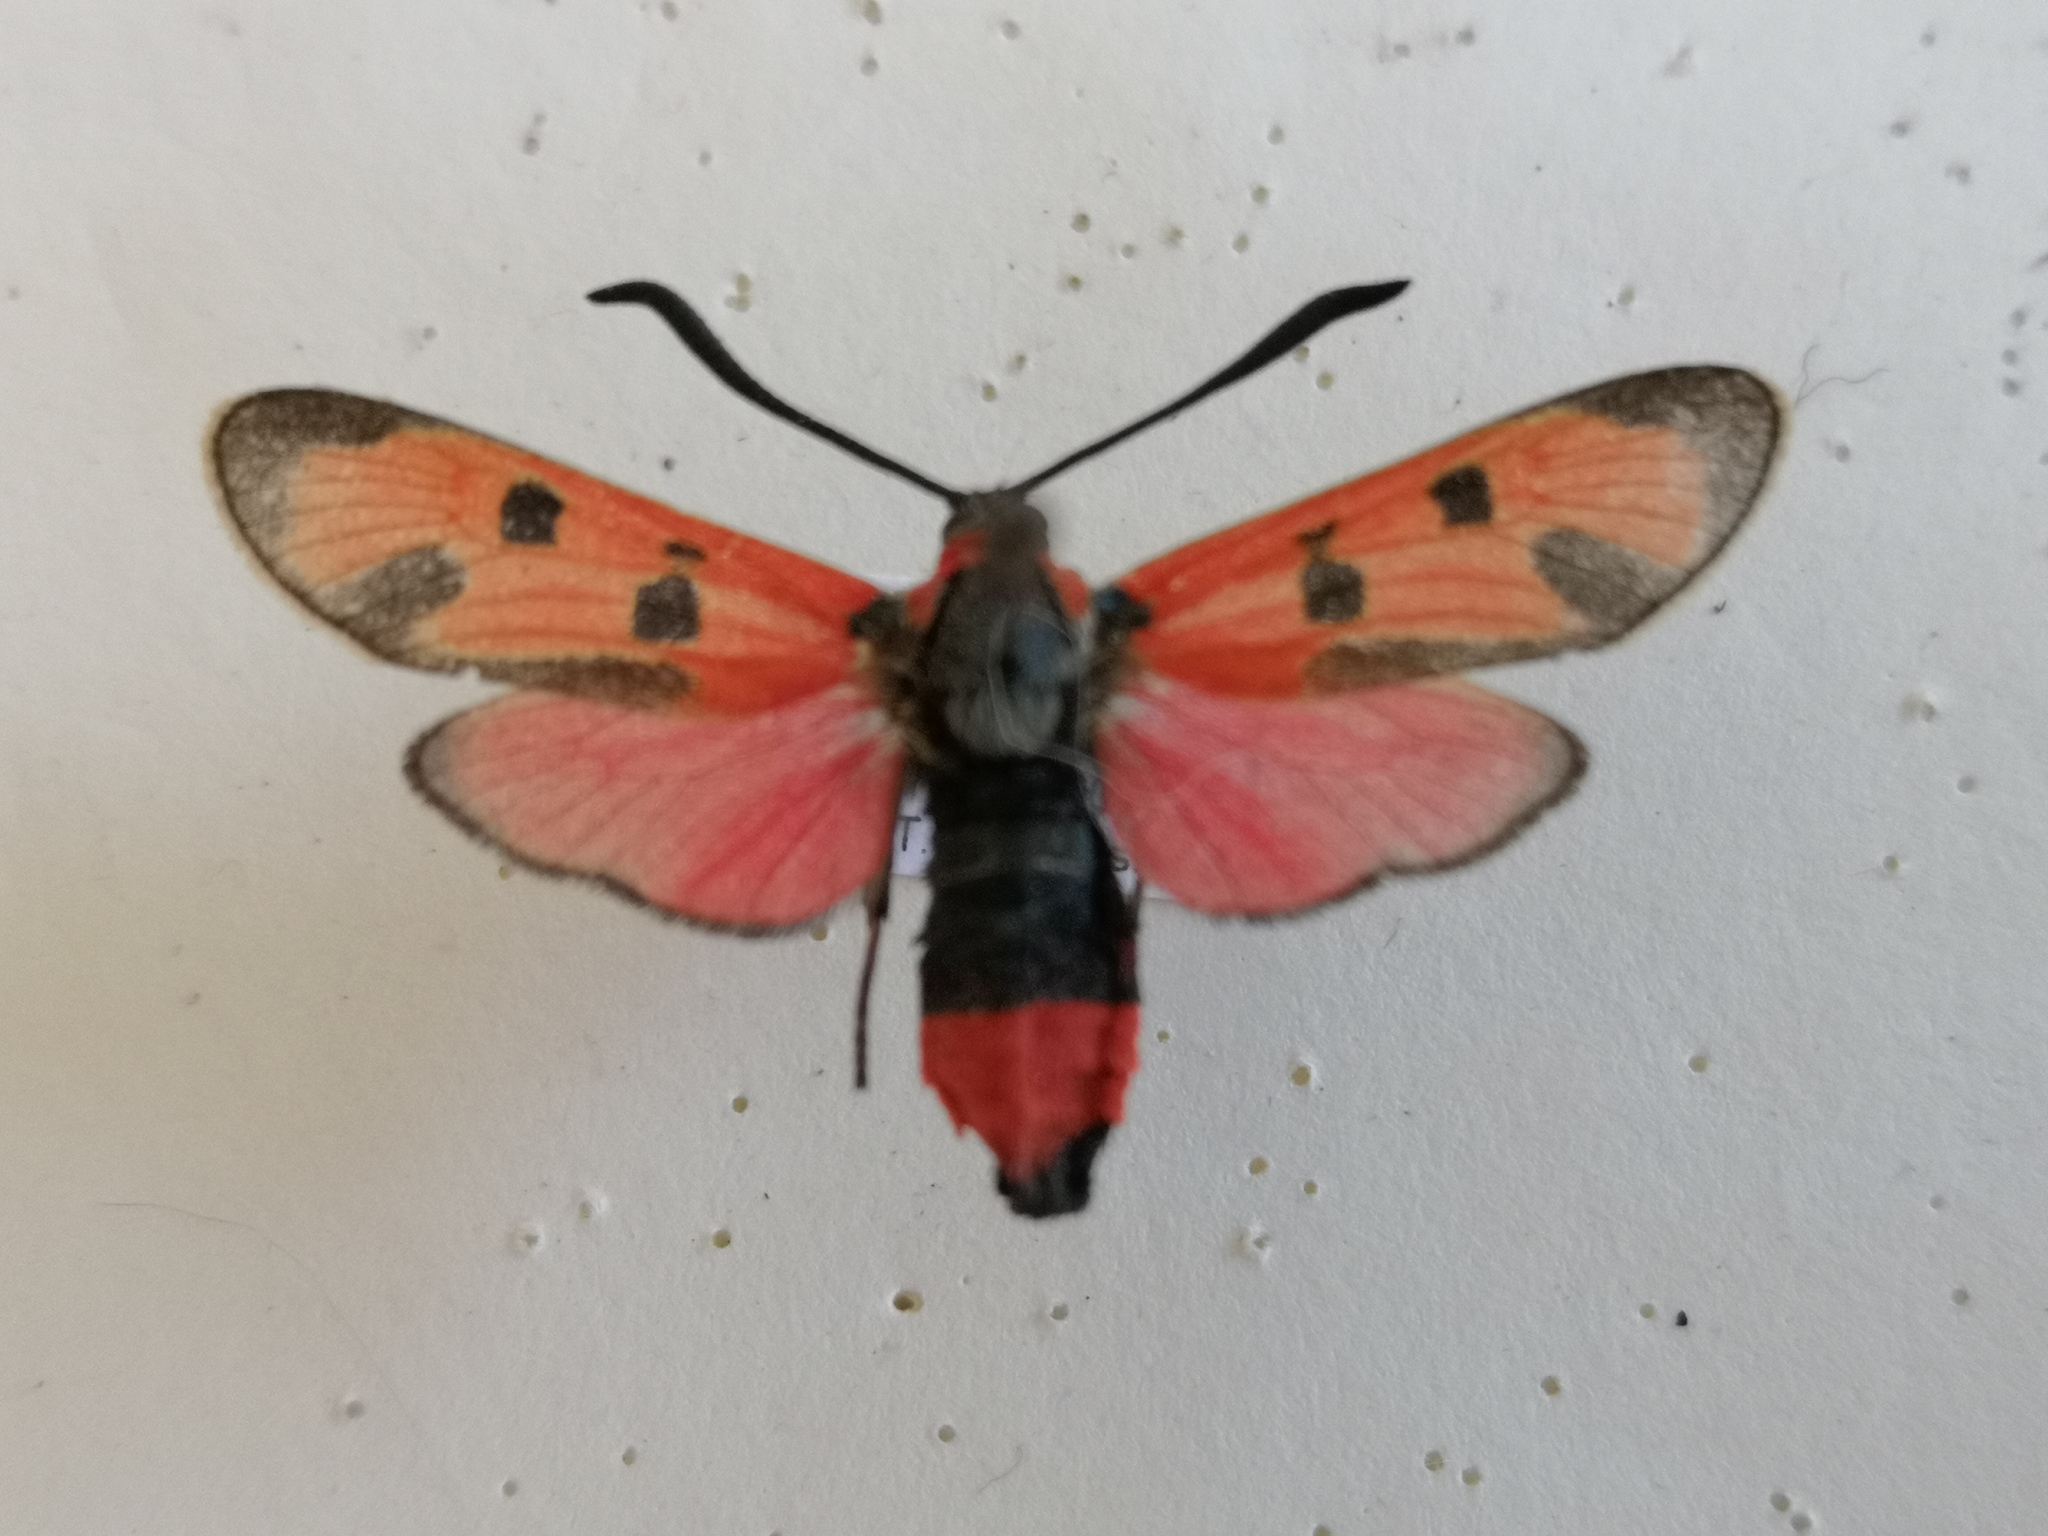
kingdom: Animalia
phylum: Arthropoda
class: Insecta
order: Lepidoptera
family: Zygaenidae
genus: Zygaena
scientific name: Zygaena laeta
